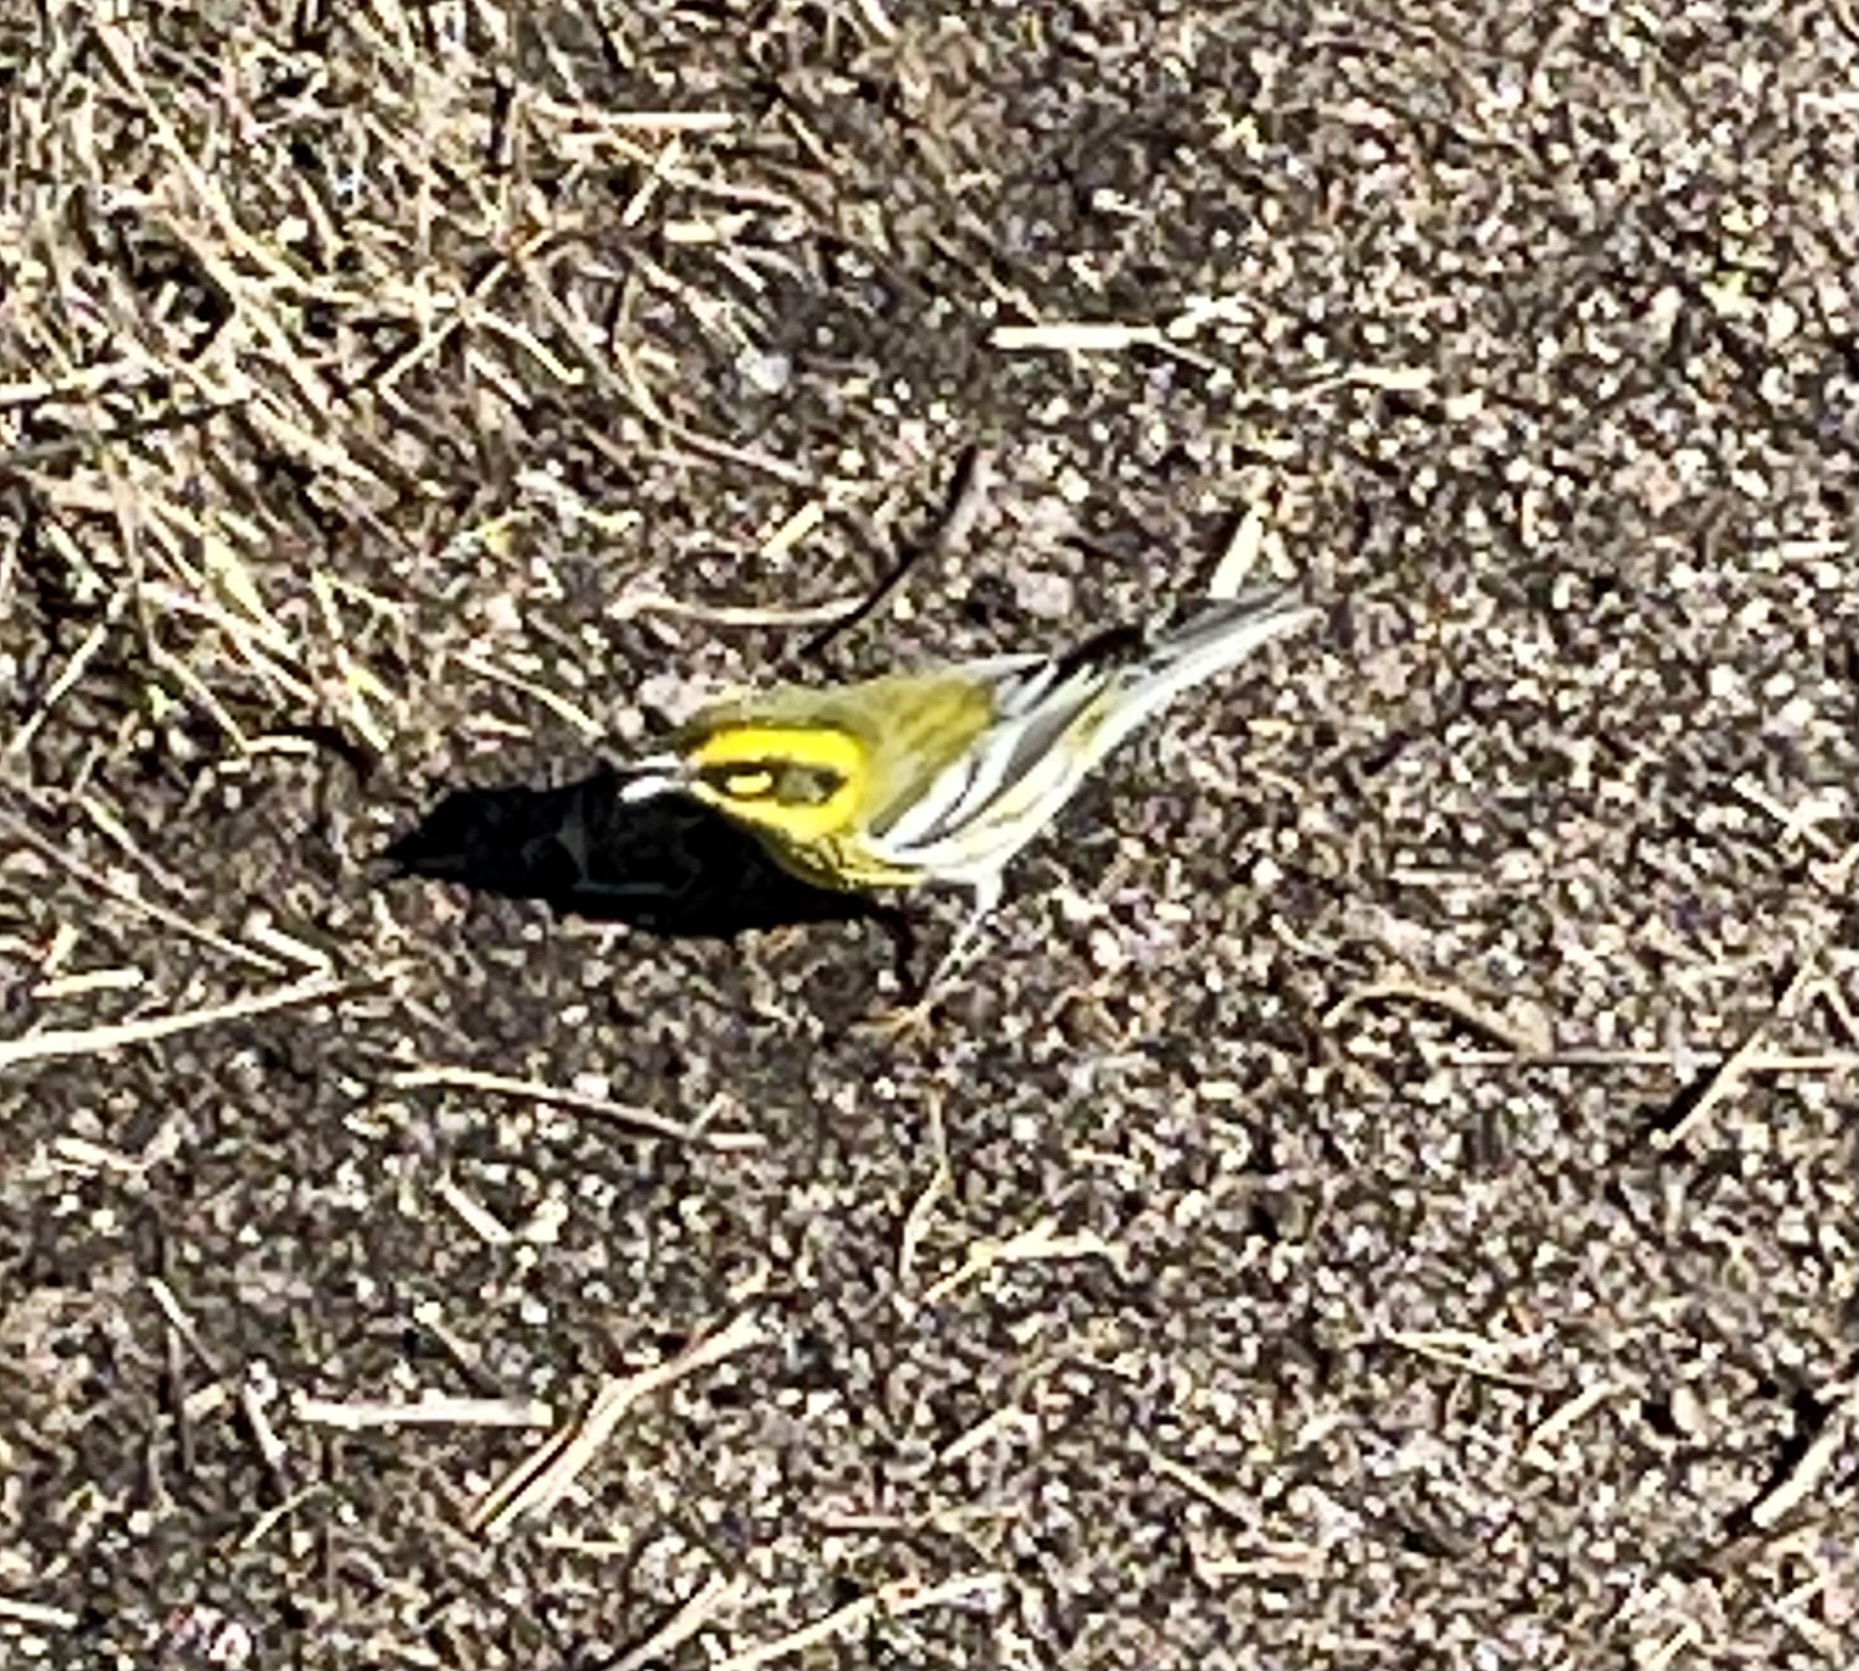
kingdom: Animalia
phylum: Chordata
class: Aves
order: Passeriformes
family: Parulidae
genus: Setophaga
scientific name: Setophaga townsendi
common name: Townsend's warbler
